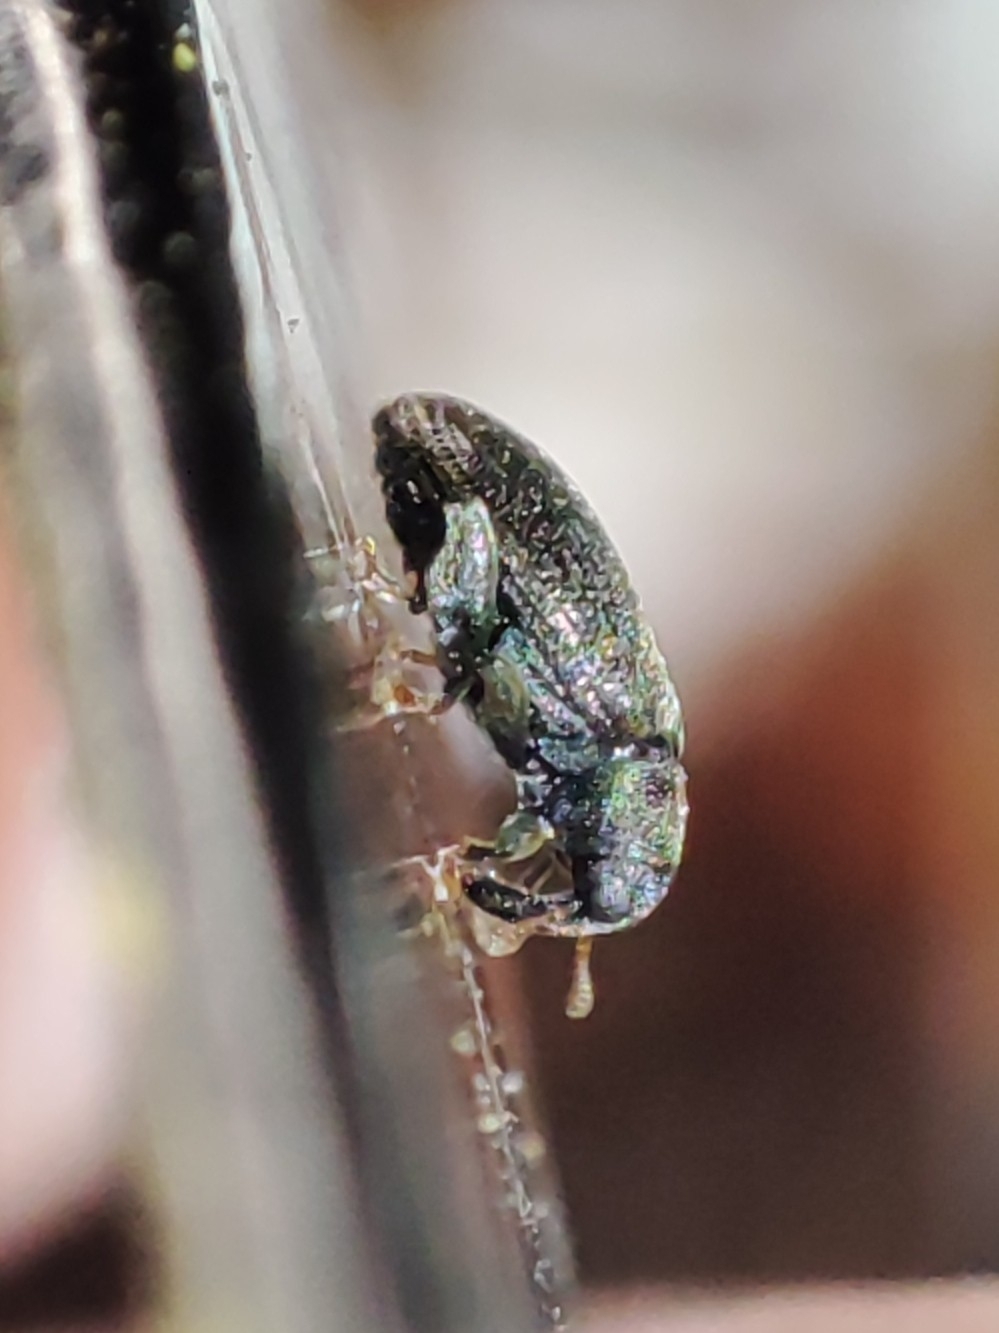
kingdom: Animalia
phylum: Arthropoda
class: Insecta
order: Coleoptera
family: Curculionidae
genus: Orchestes
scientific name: Orchestes fagi
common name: Beech leaf miner
